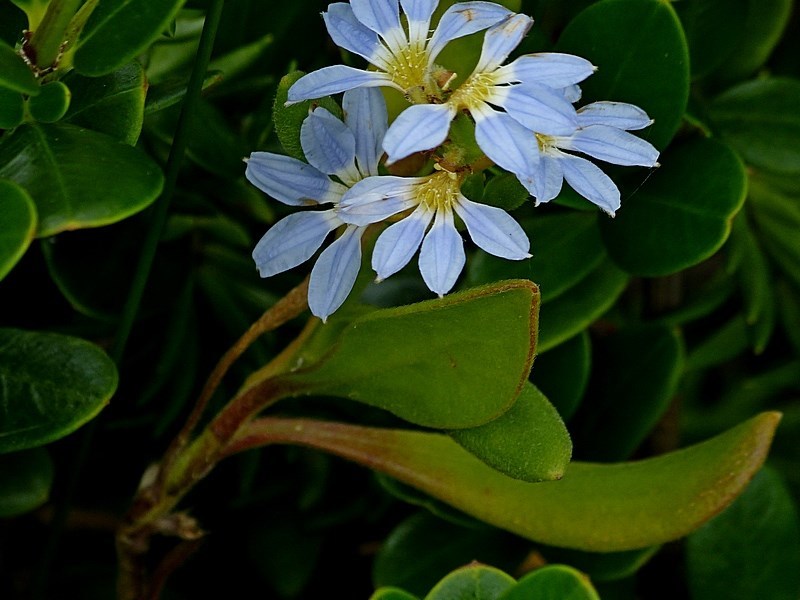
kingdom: Plantae
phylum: Tracheophyta
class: Magnoliopsida
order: Asterales
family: Goodeniaceae
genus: Scaevola
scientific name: Scaevola calendulacea
